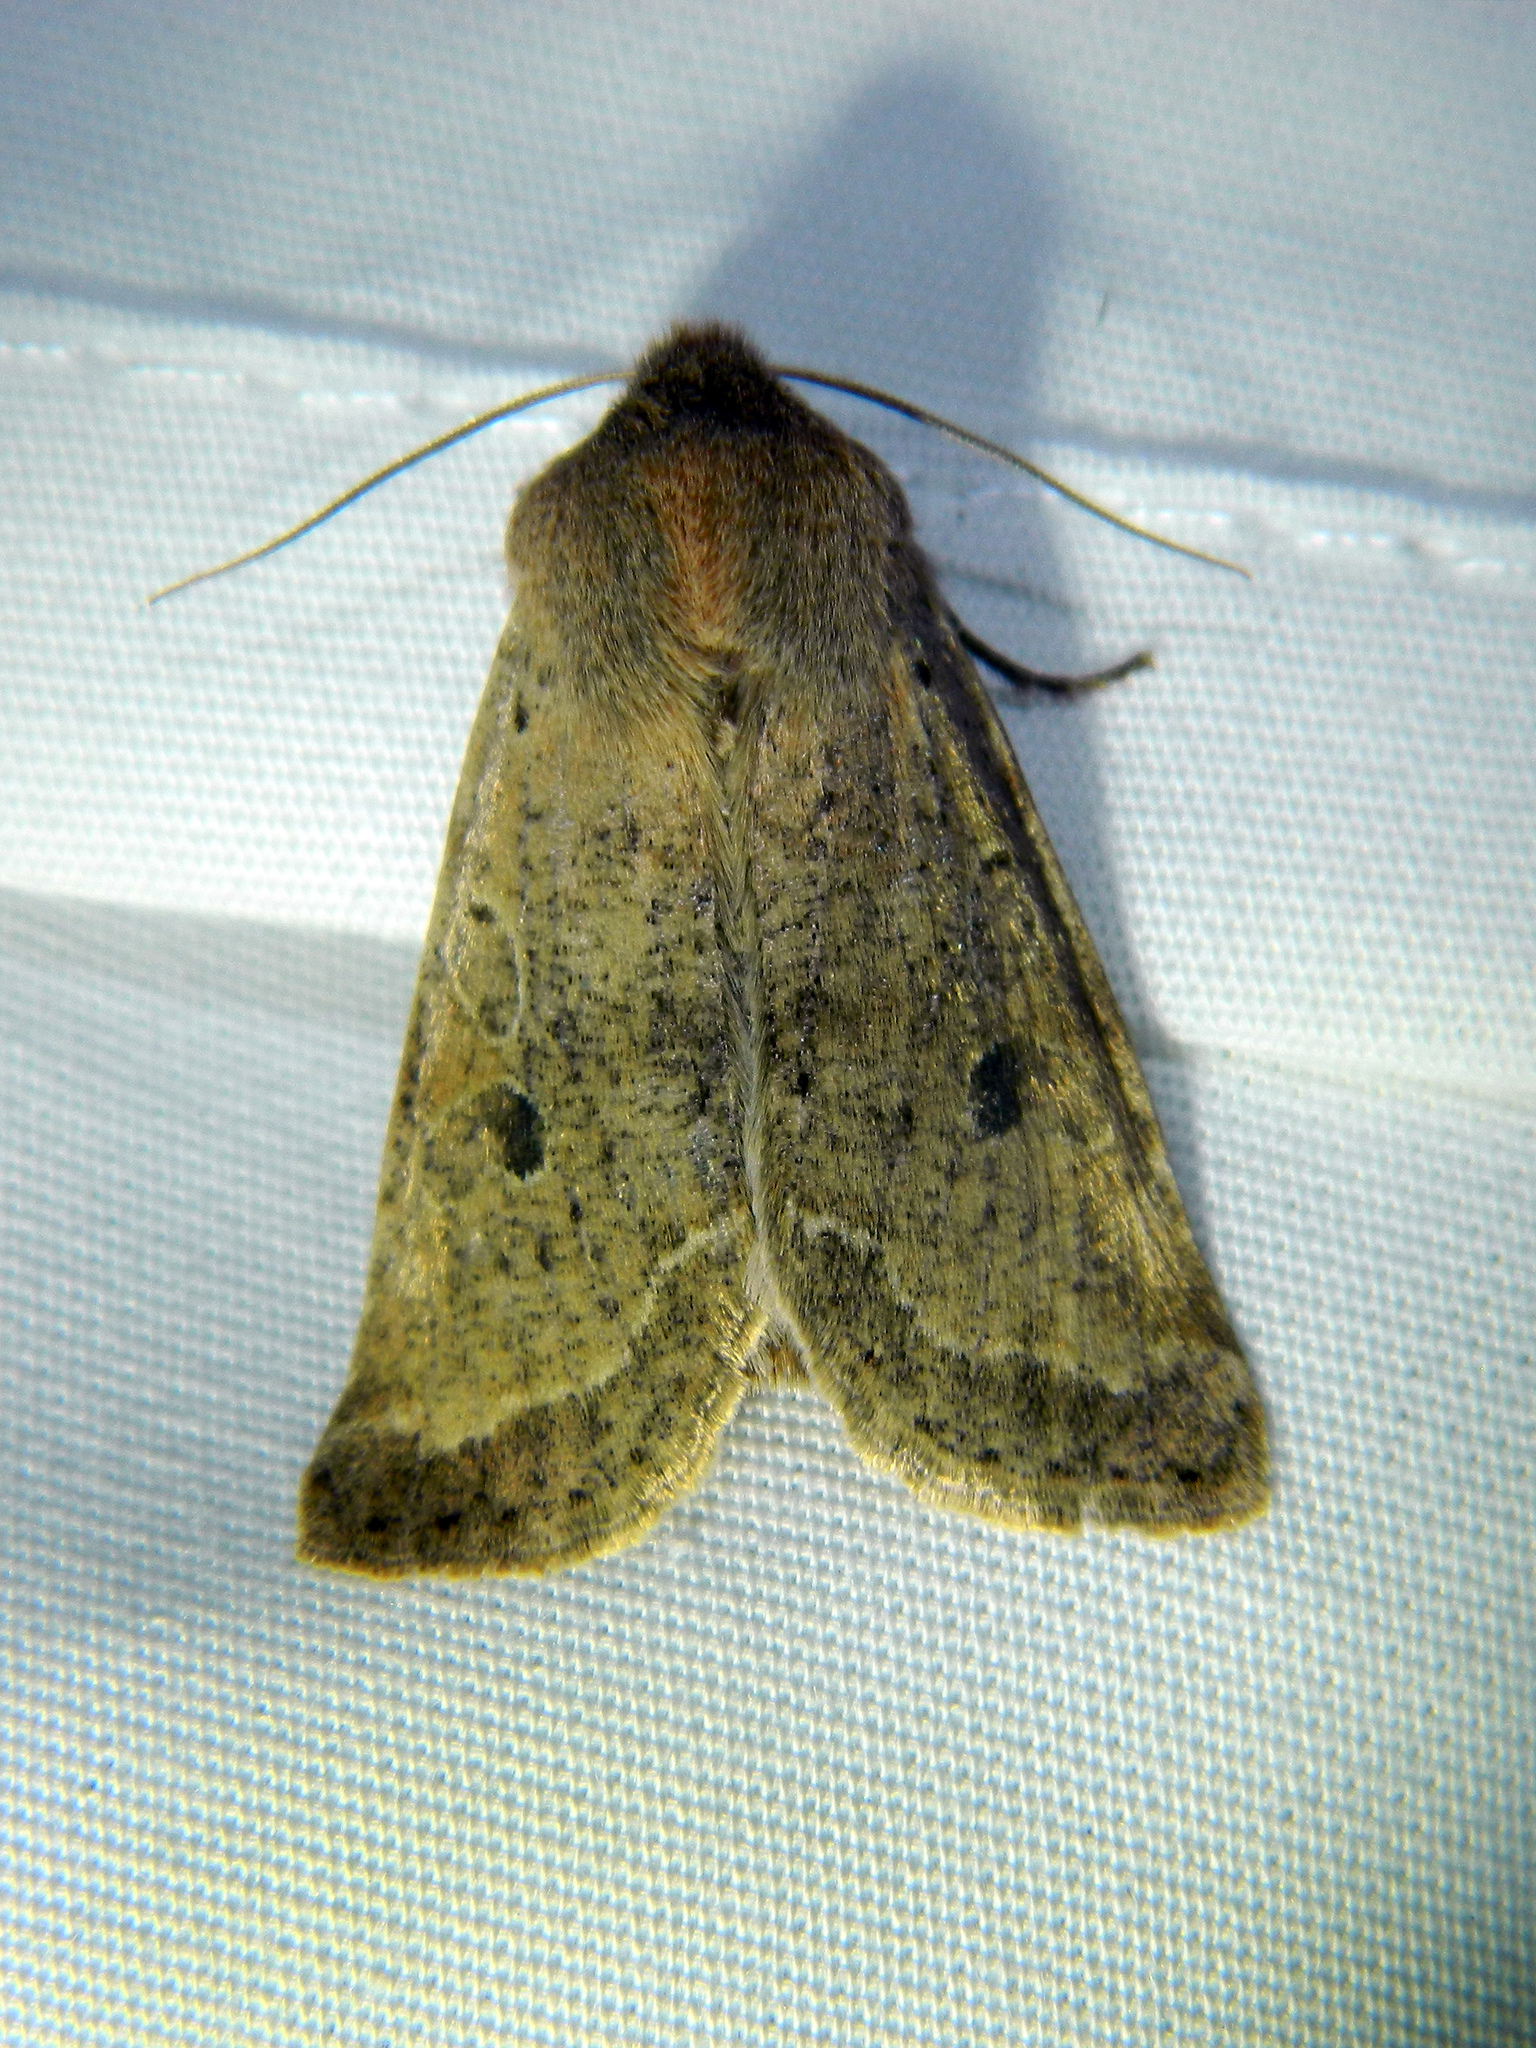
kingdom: Animalia
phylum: Arthropoda
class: Insecta
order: Lepidoptera
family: Noctuidae
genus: Orthosia
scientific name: Orthosia hibisci
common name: Green fruitworm
